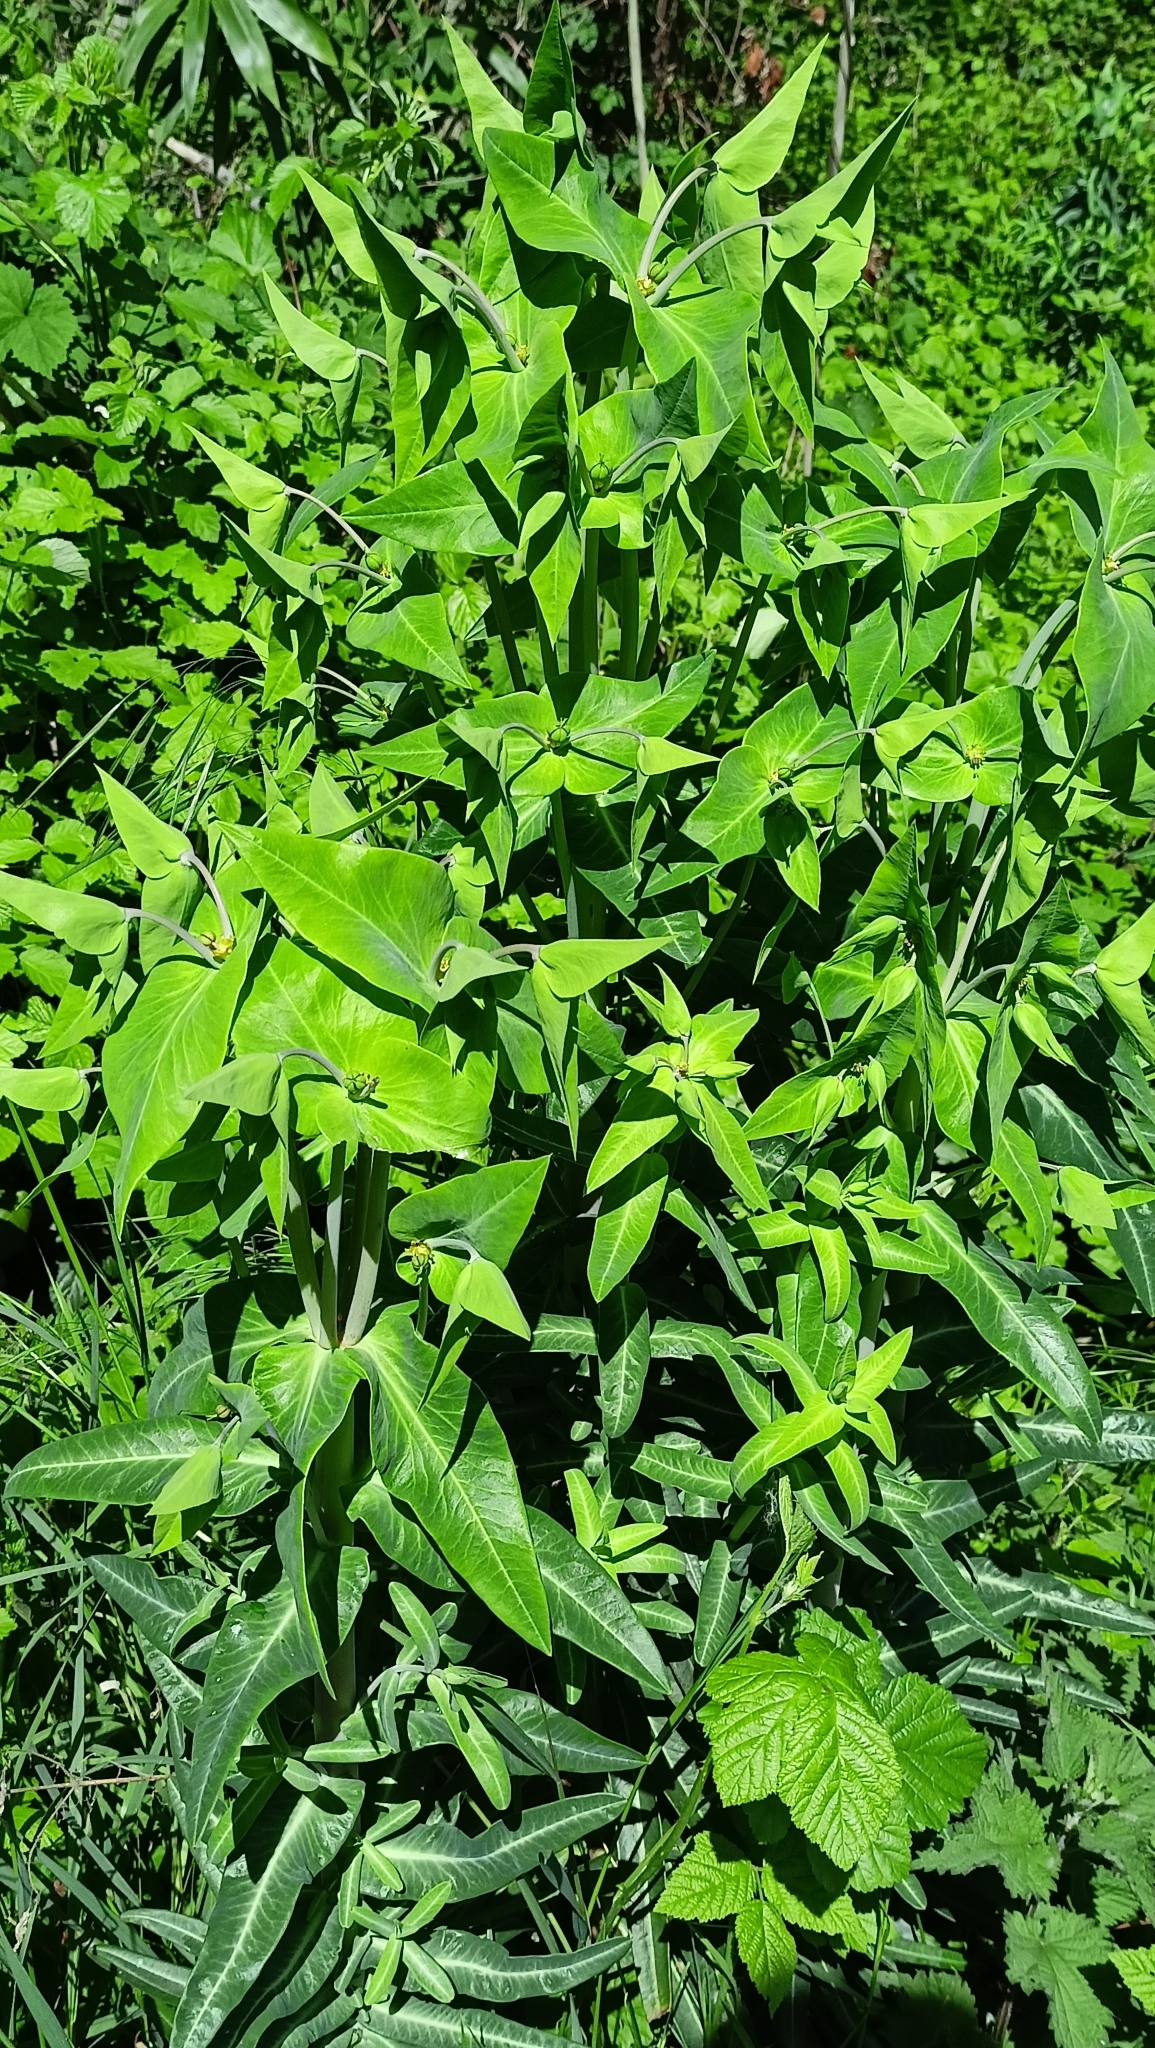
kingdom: Plantae
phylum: Tracheophyta
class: Magnoliopsida
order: Malpighiales
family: Euphorbiaceae
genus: Euphorbia
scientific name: Euphorbia lathyris
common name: Caper spurge
